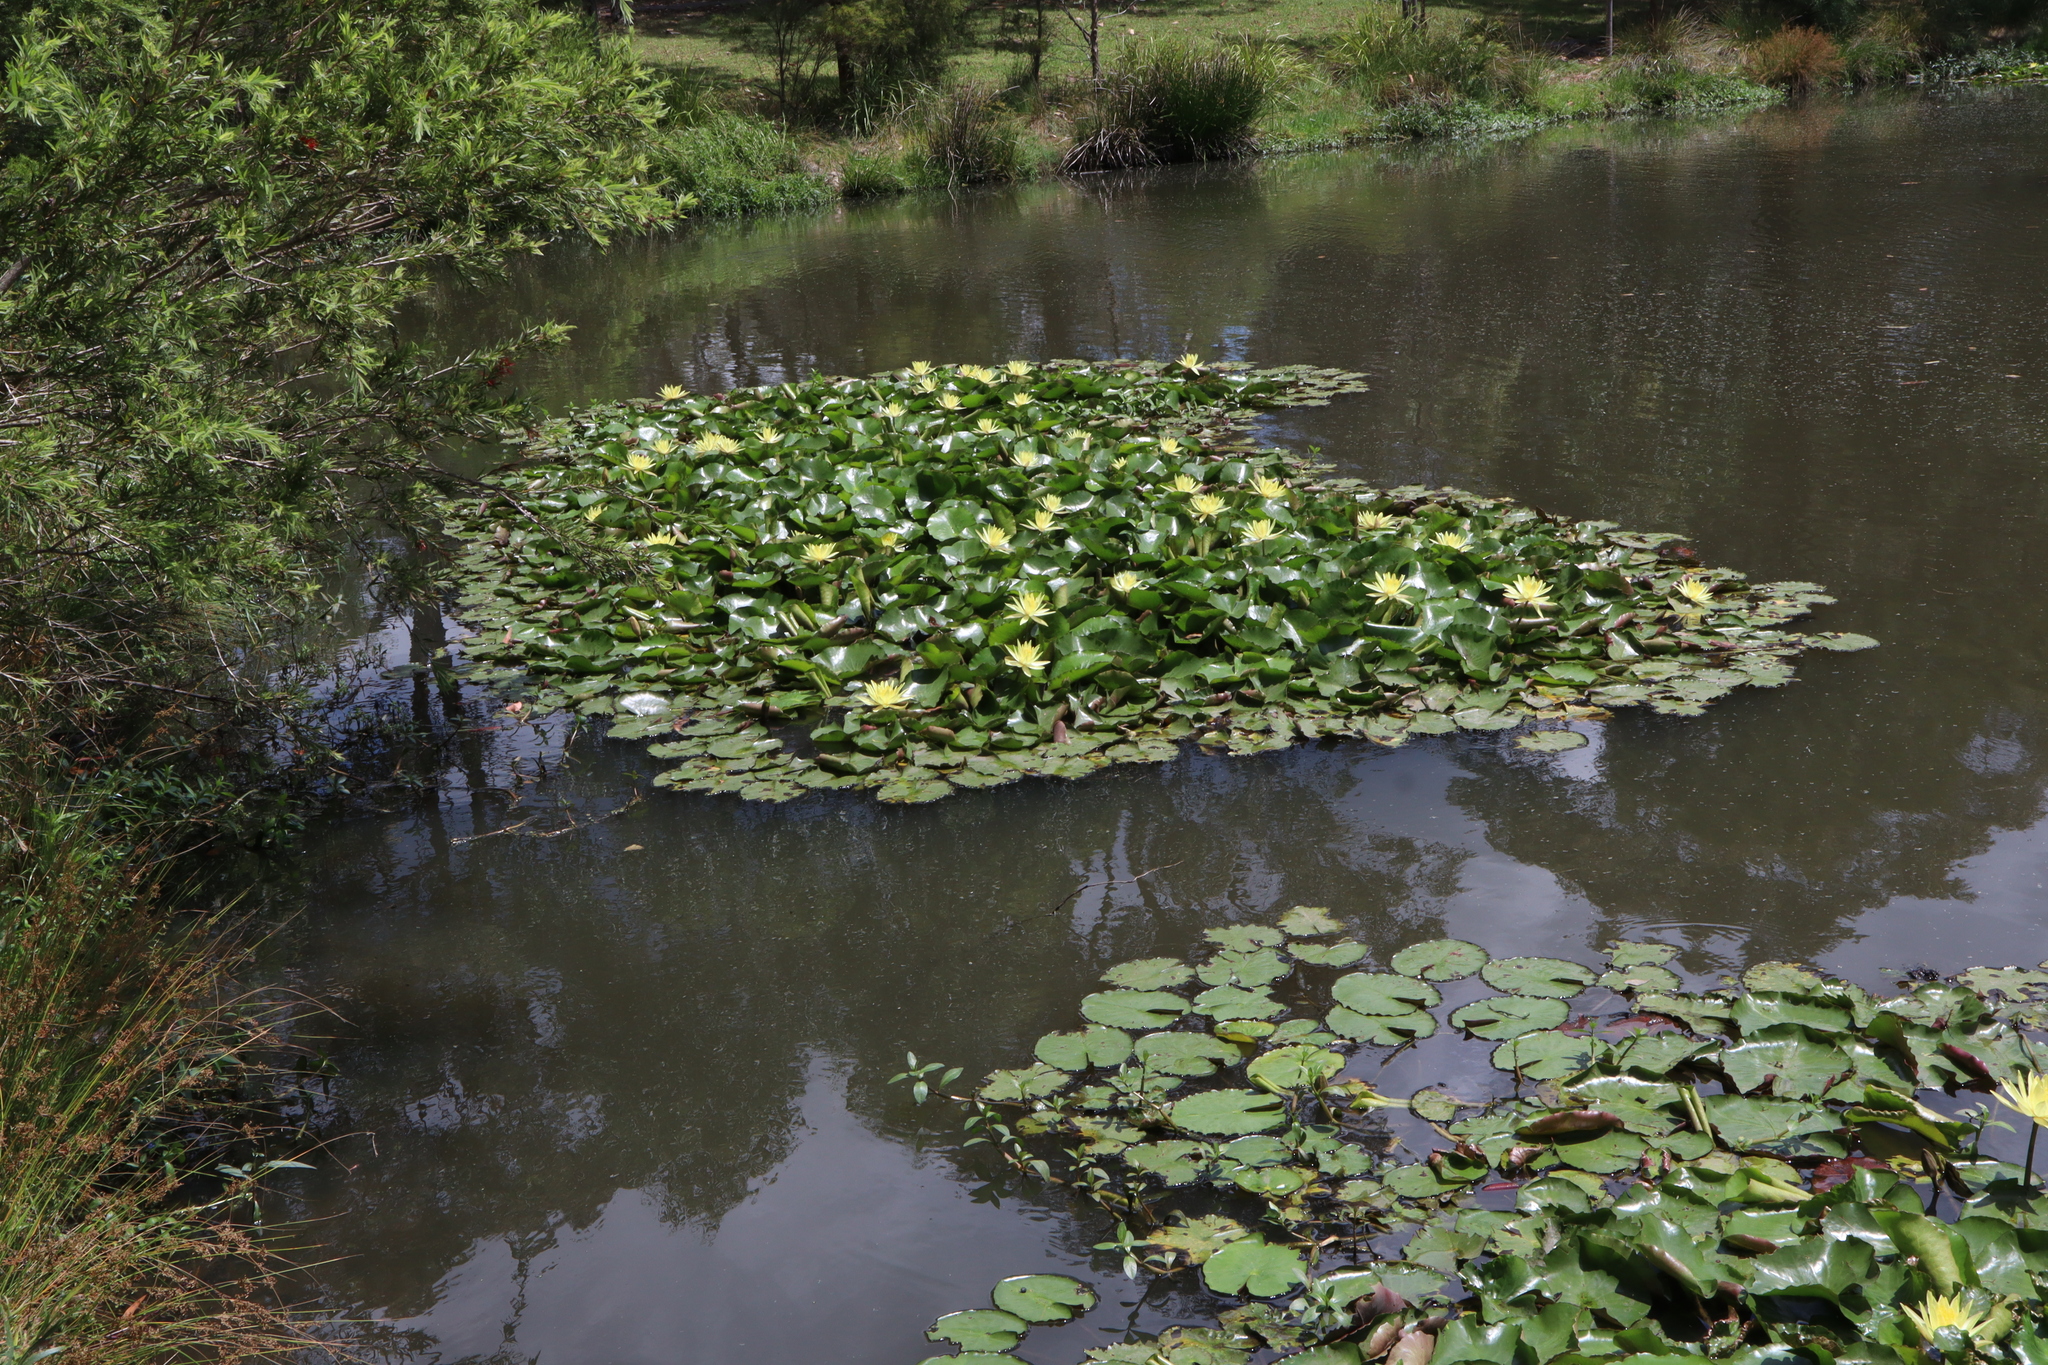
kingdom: Plantae
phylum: Tracheophyta
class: Magnoliopsida
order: Nymphaeales
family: Nymphaeaceae
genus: Nymphaea
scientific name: Nymphaea mexicana
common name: Banana water-lily
